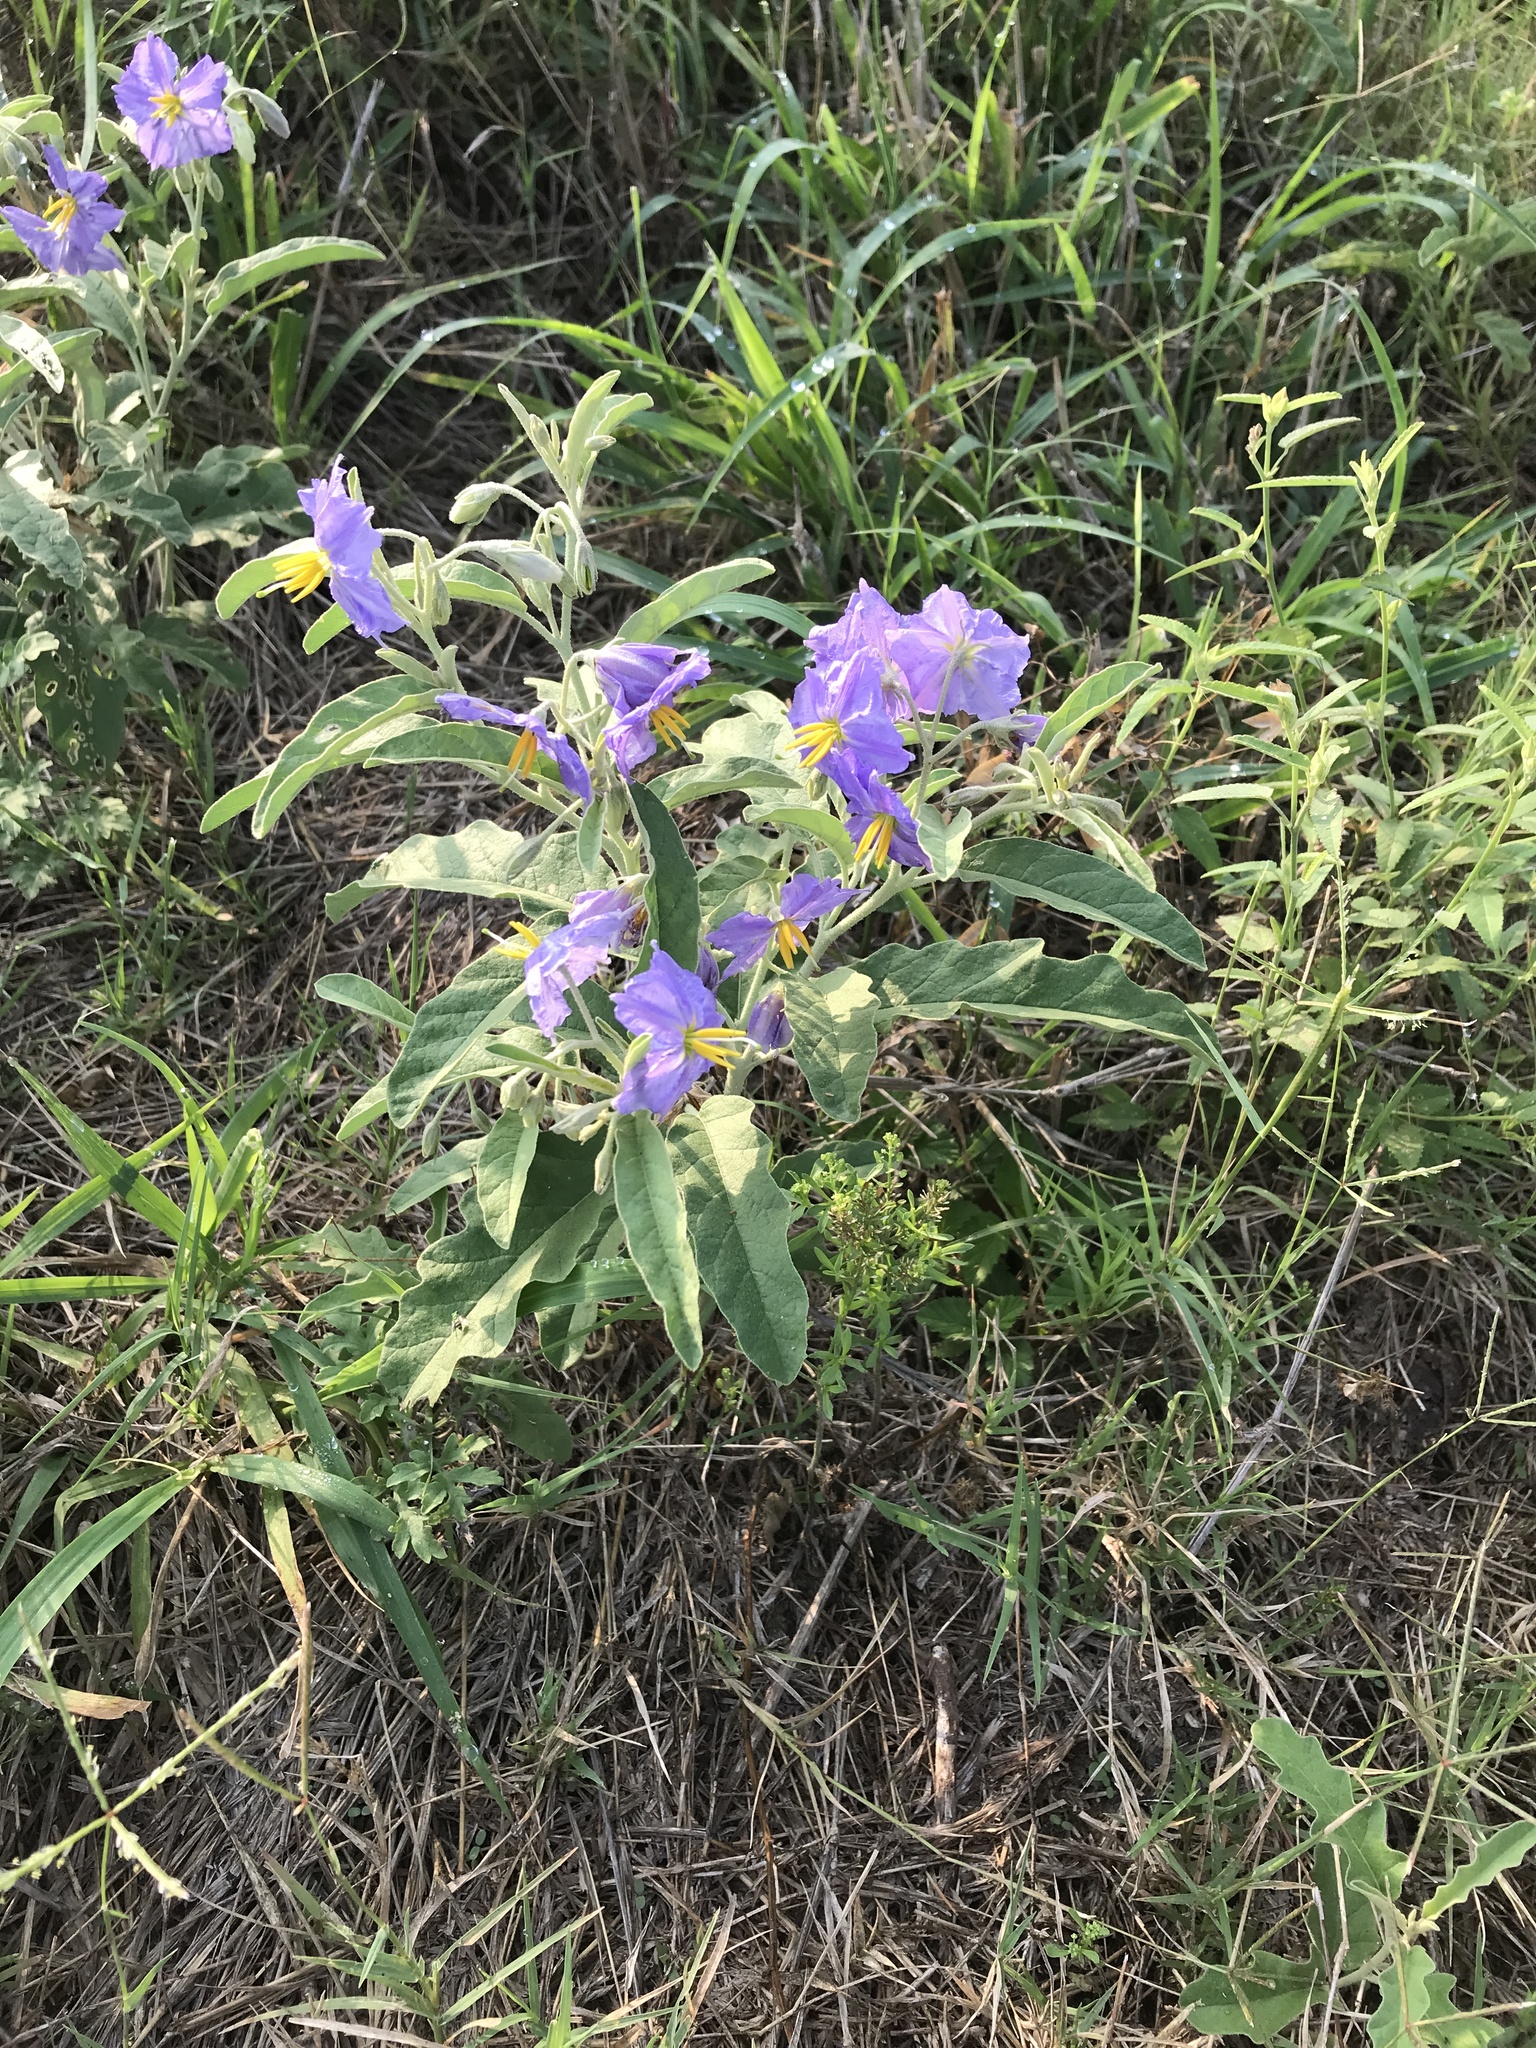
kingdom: Plantae
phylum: Tracheophyta
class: Magnoliopsida
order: Solanales
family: Solanaceae
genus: Solanum
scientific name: Solanum elaeagnifolium
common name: Silverleaf nightshade
